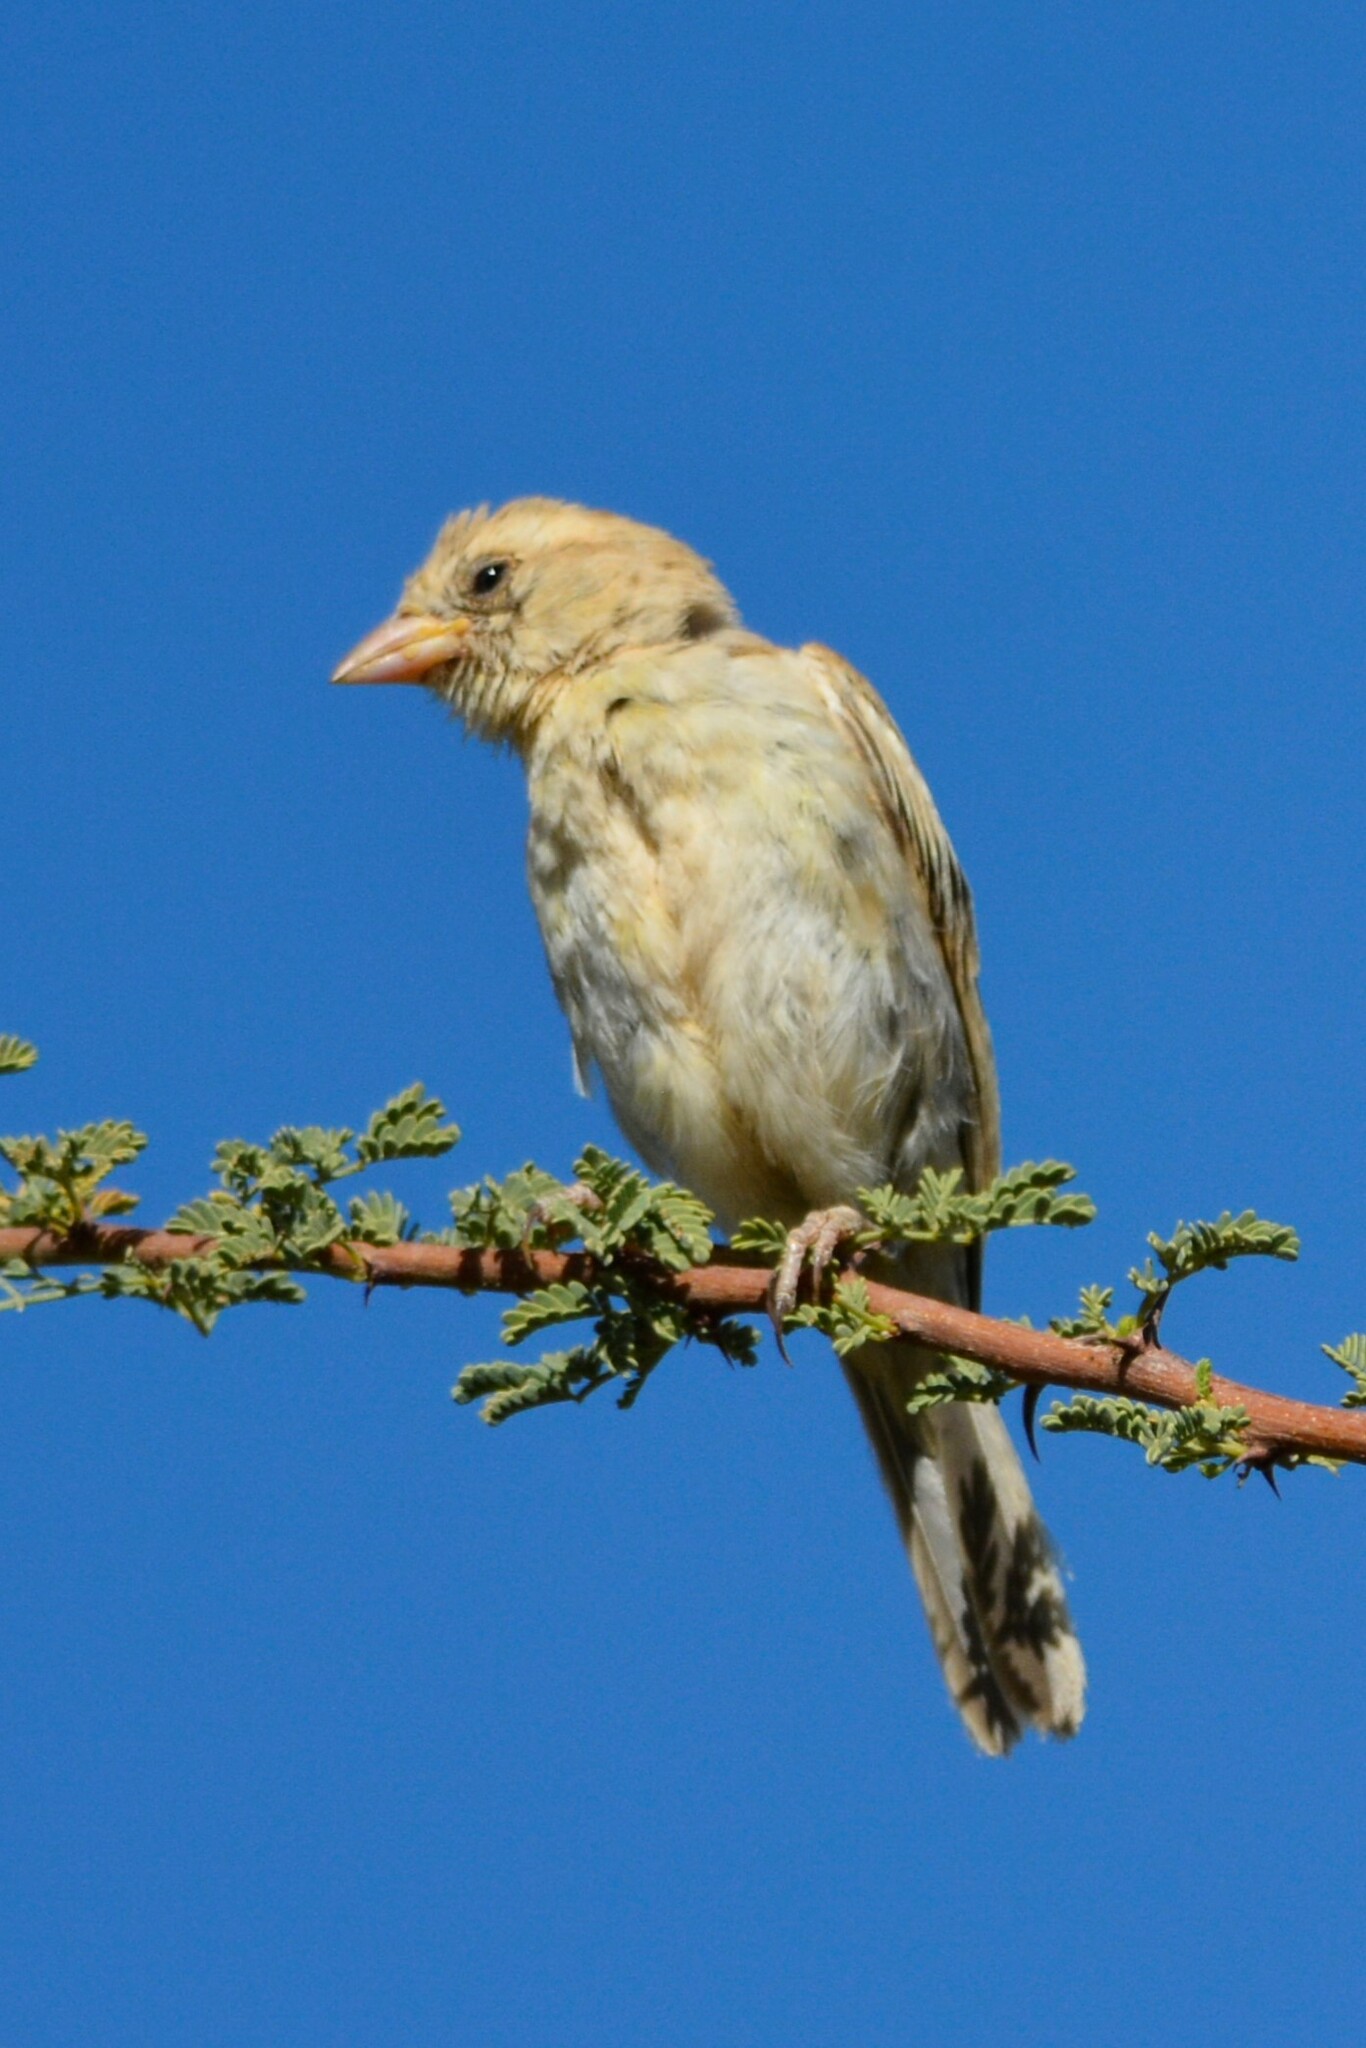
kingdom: Animalia
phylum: Chordata
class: Aves
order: Passeriformes
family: Passeridae
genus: Passer
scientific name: Passer luteus
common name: Sudan golden sparrow
